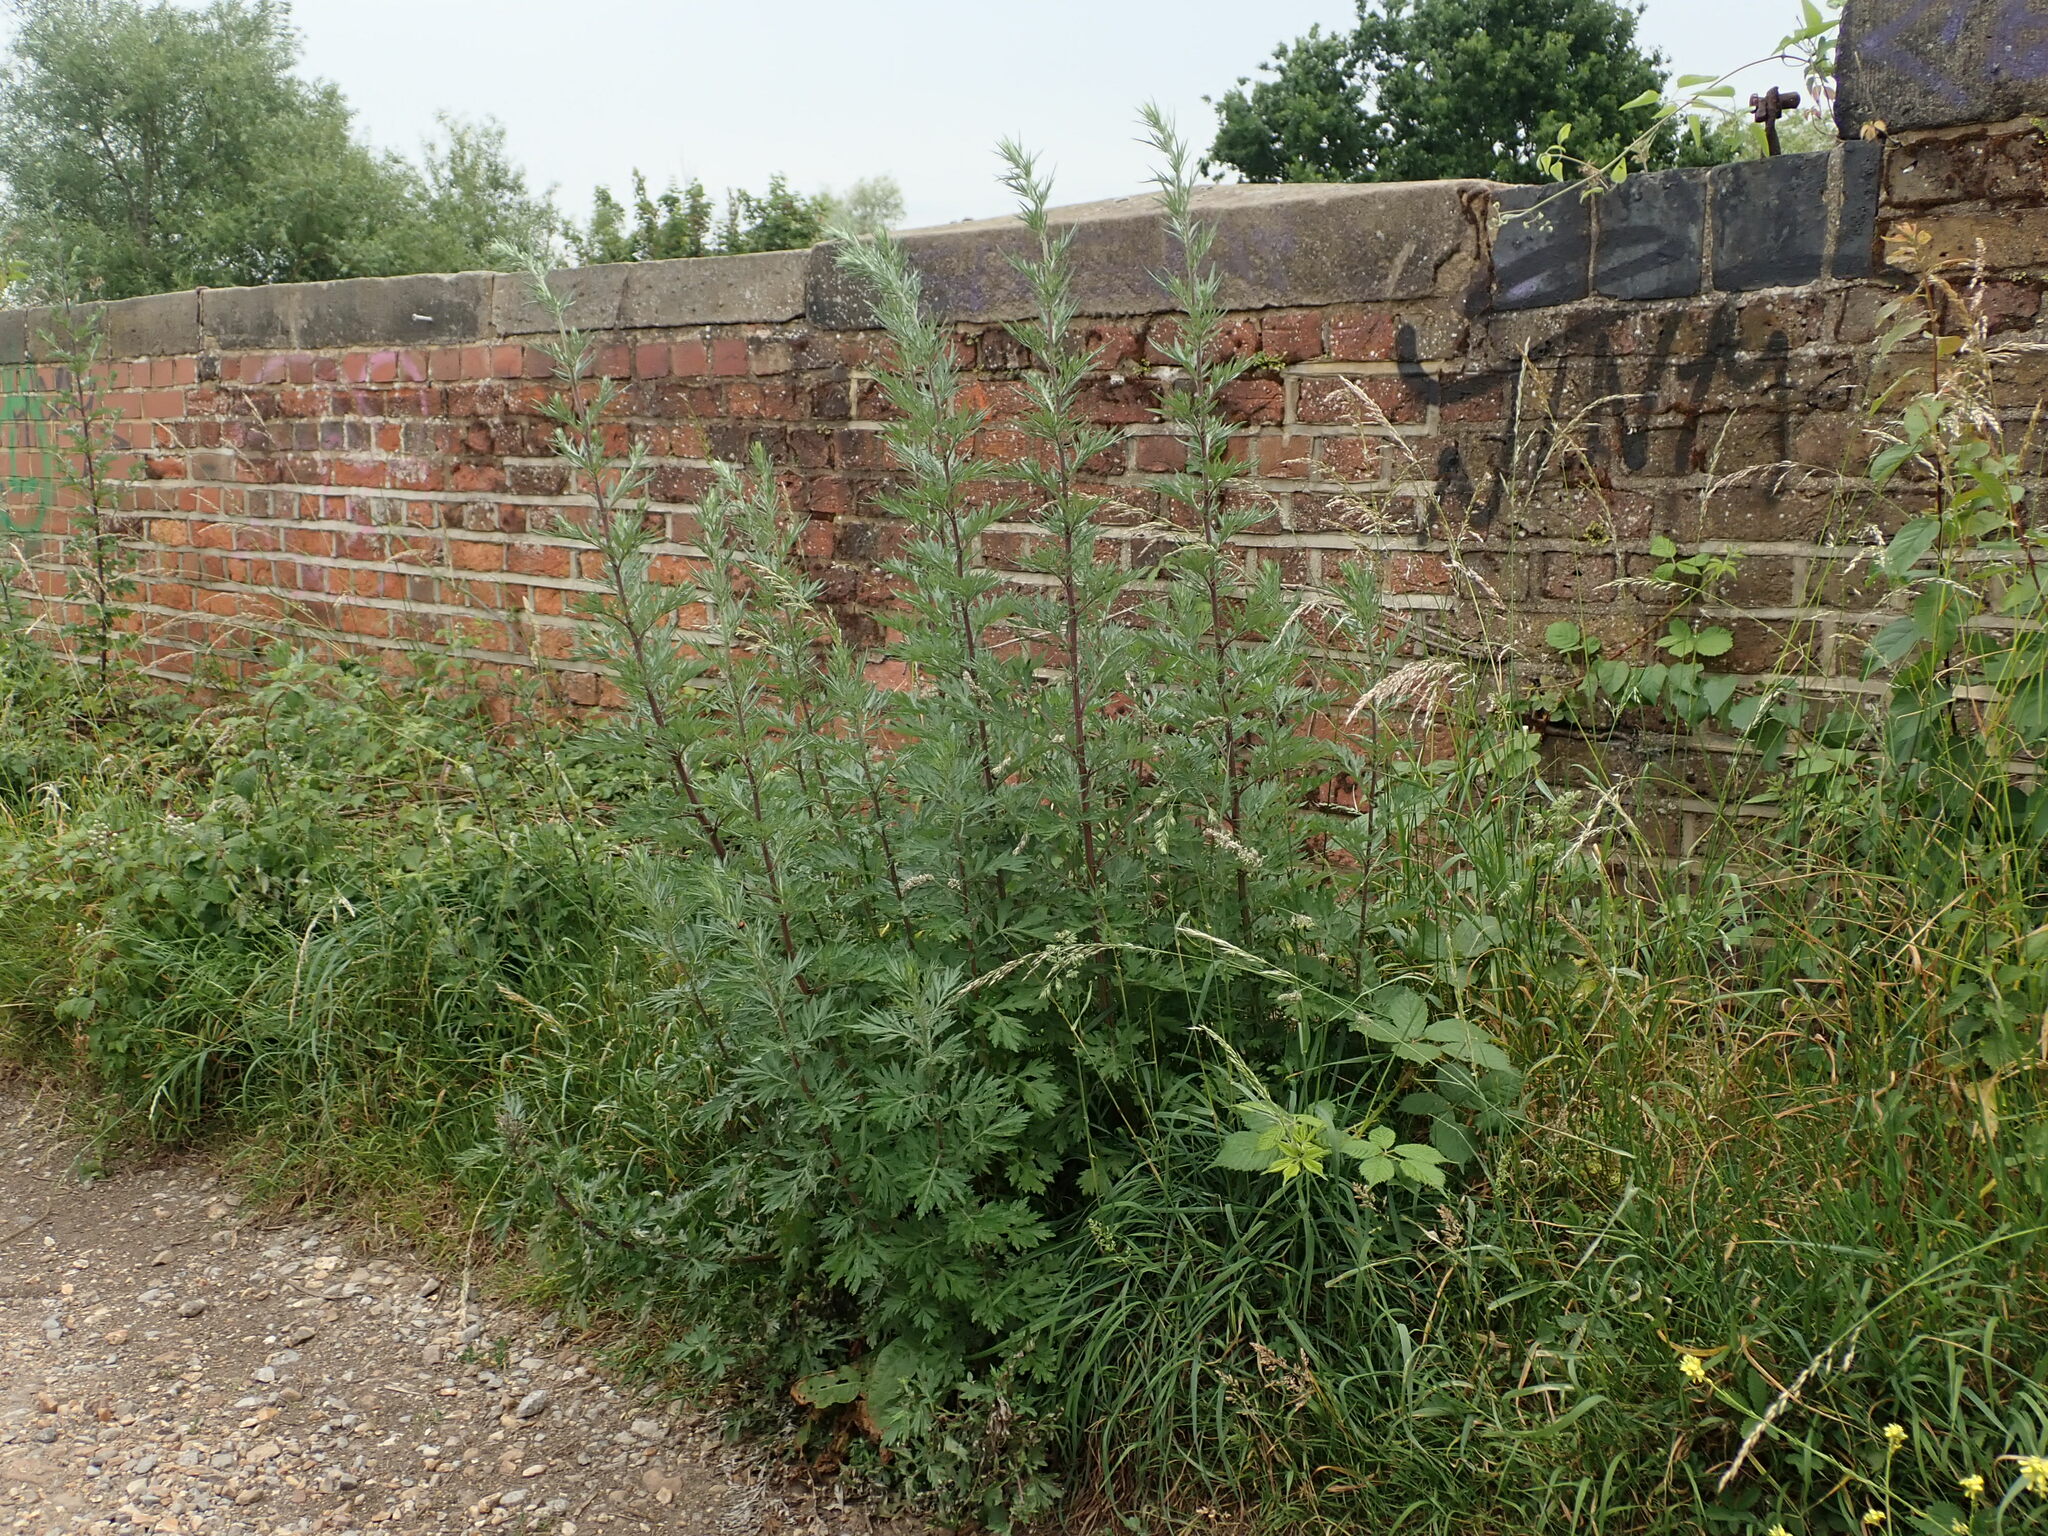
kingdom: Plantae
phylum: Tracheophyta
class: Magnoliopsida
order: Asterales
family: Asteraceae
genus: Artemisia
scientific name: Artemisia vulgaris
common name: Mugwort
